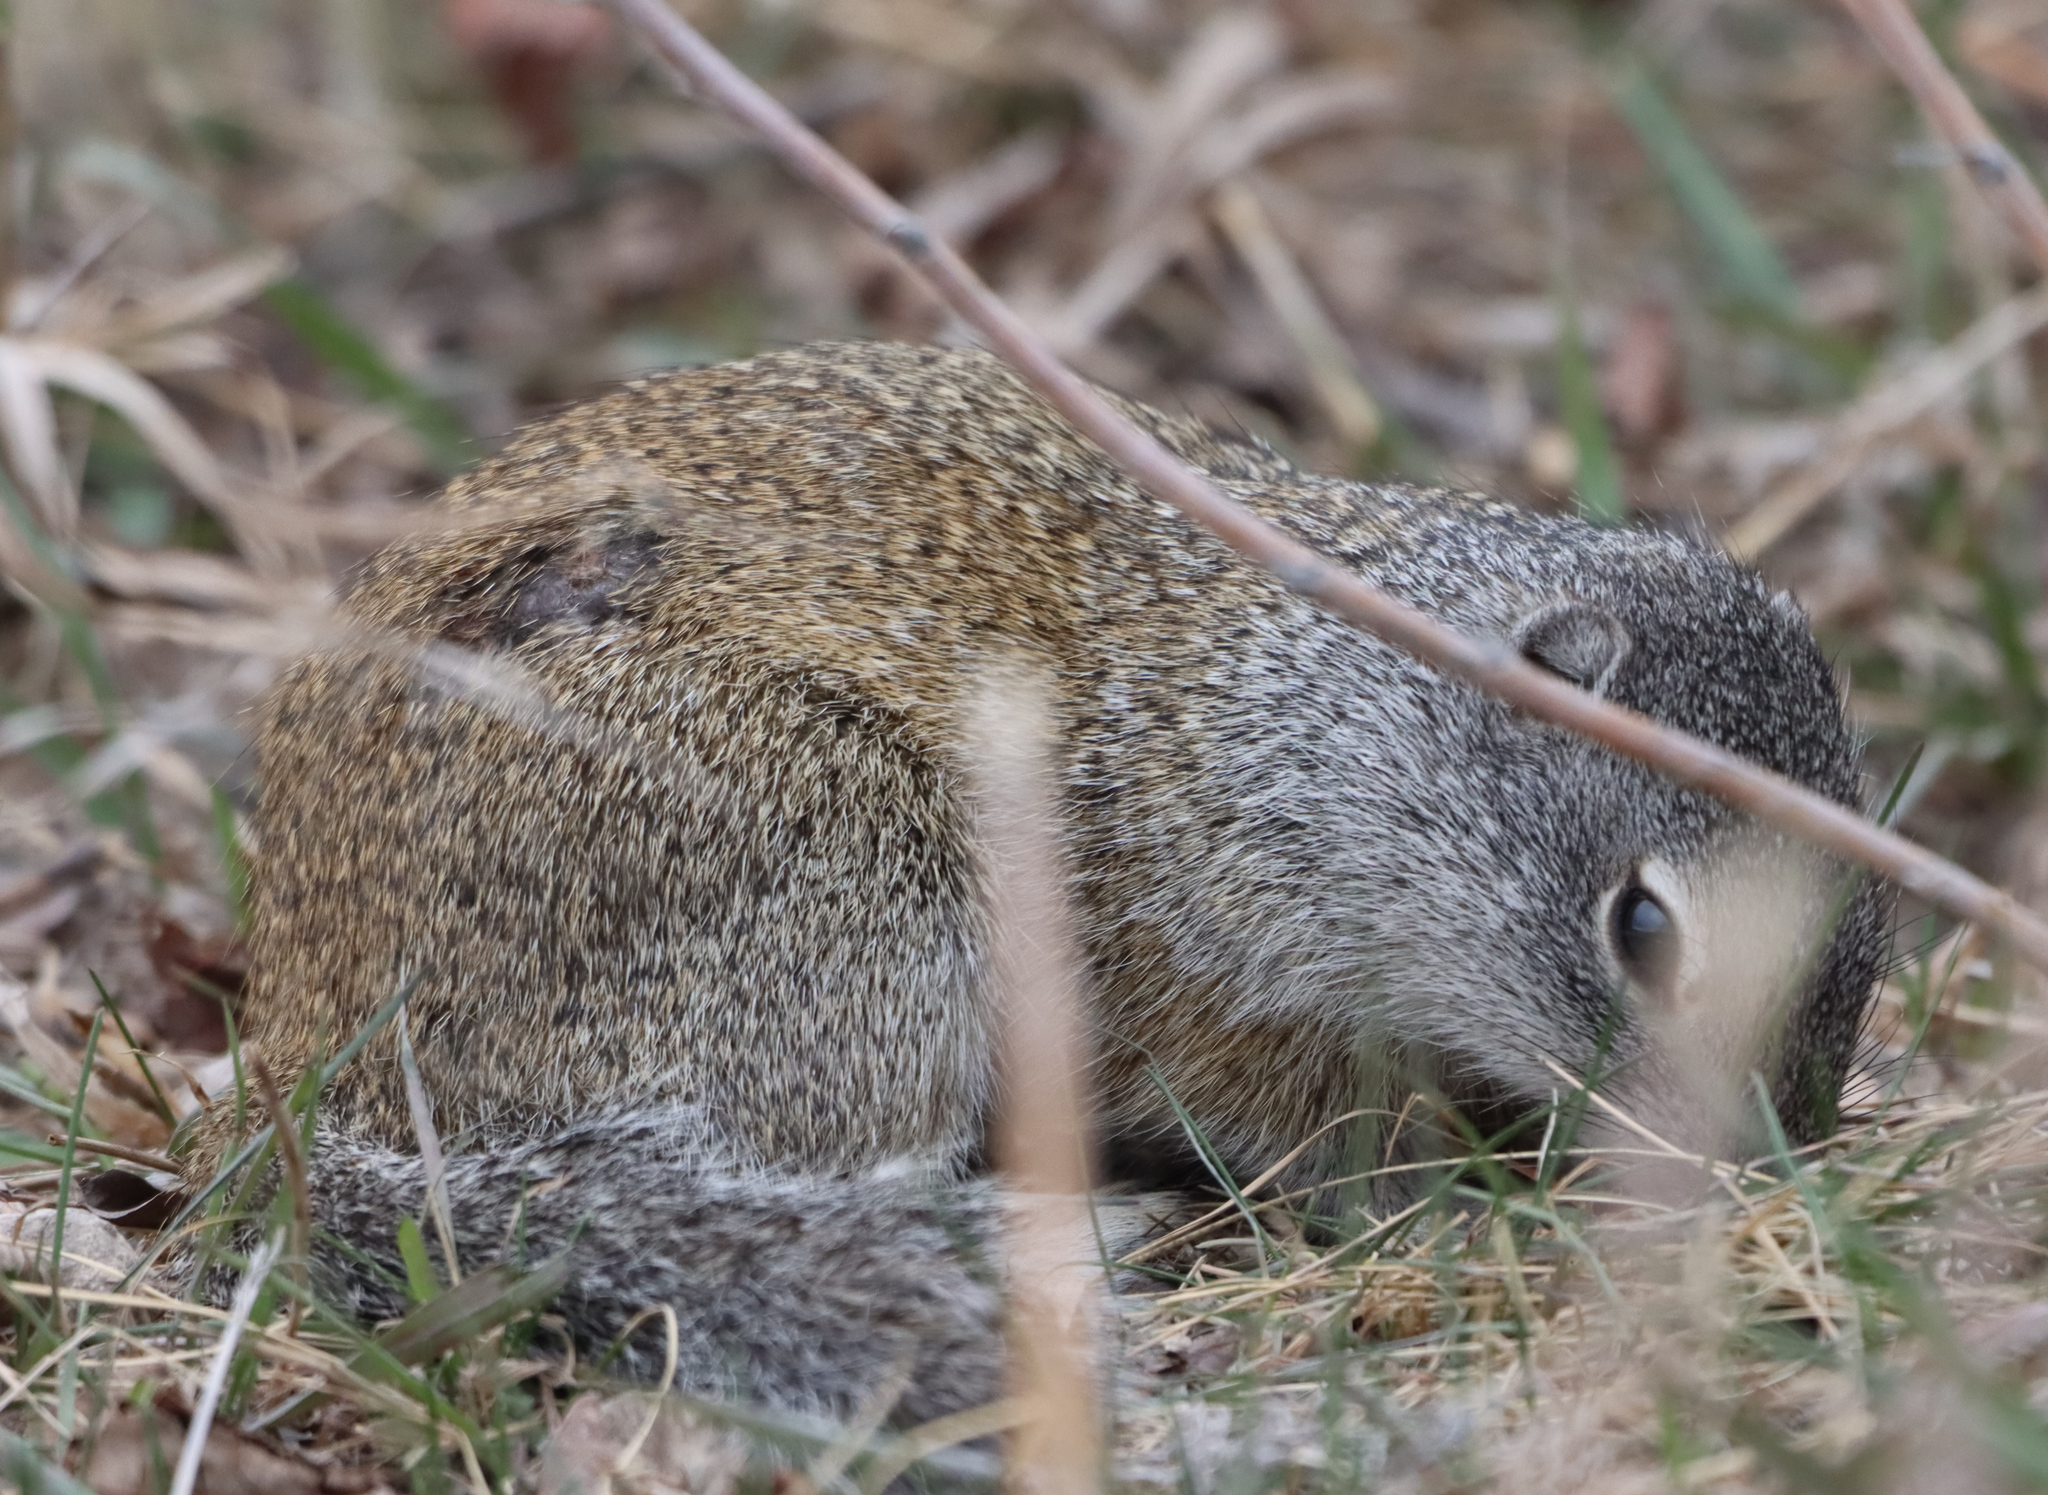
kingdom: Animalia
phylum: Chordata
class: Mammalia
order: Rodentia
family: Sciuridae
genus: Poliocitellus
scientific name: Poliocitellus franklinii
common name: Franklin's ground squirrel
